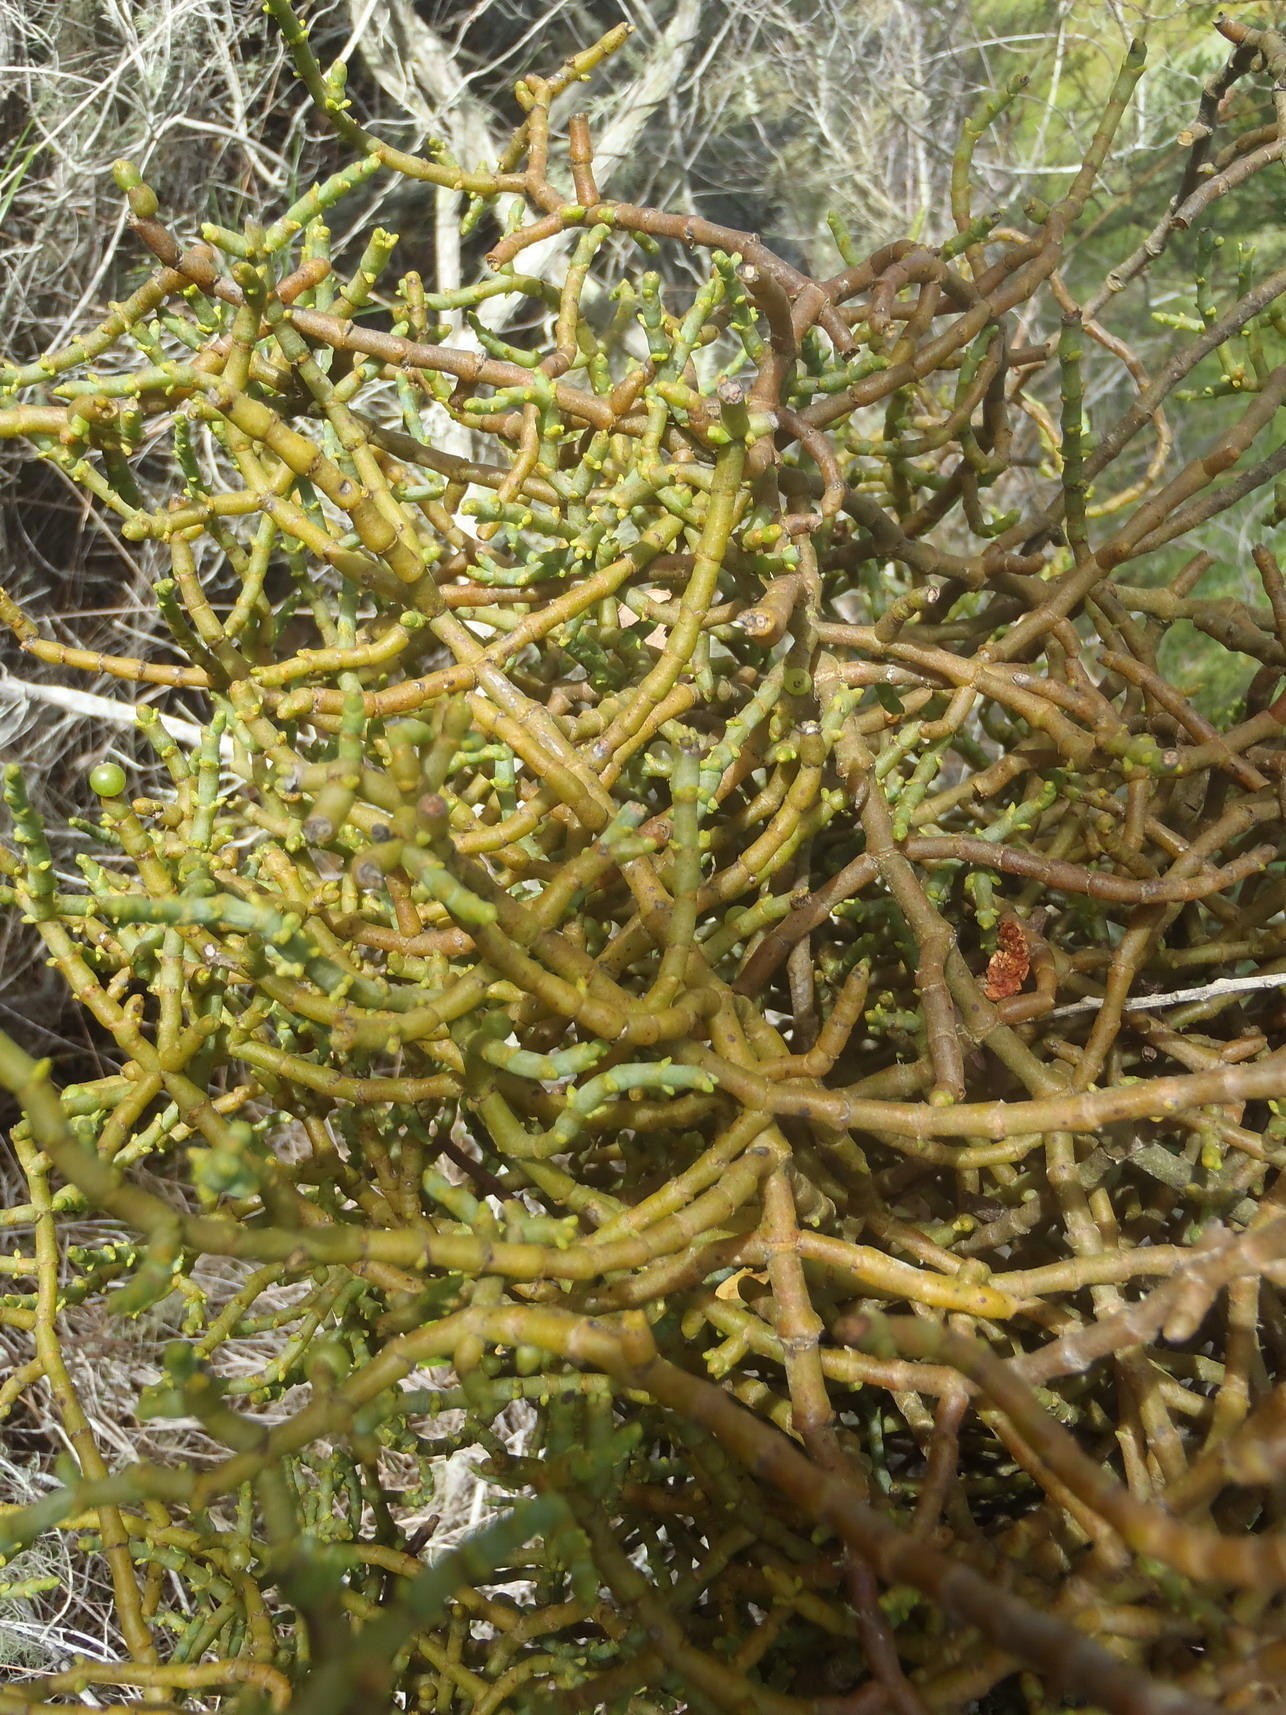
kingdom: Plantae
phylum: Tracheophyta
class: Magnoliopsida
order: Santalales
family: Viscaceae
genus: Viscum
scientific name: Viscum capense
